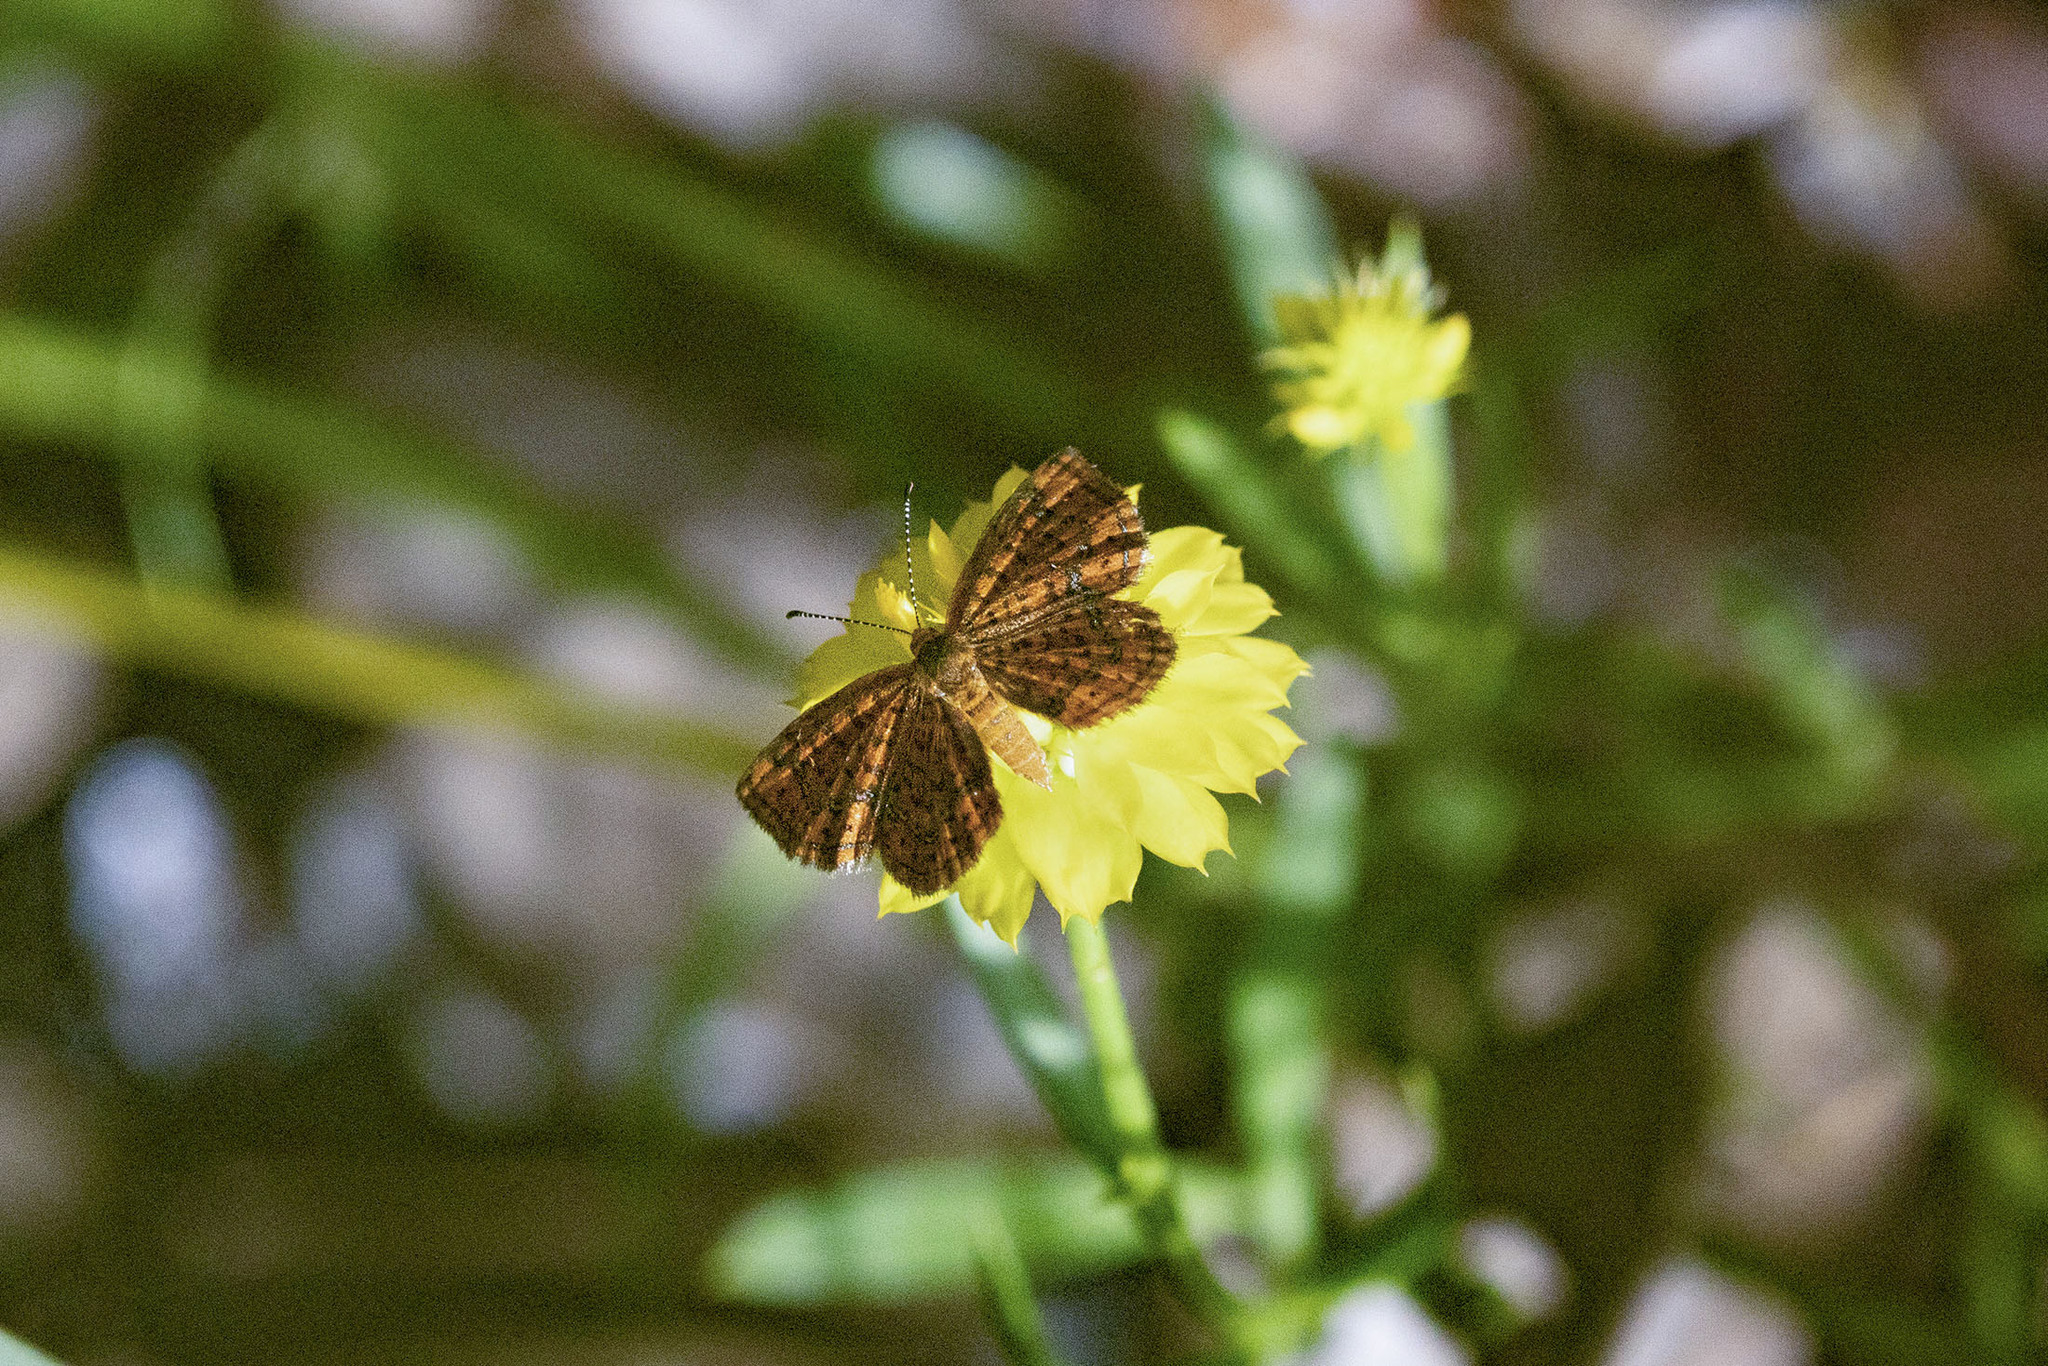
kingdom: Animalia
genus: Calephelis
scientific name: Calephelis virginiensis
